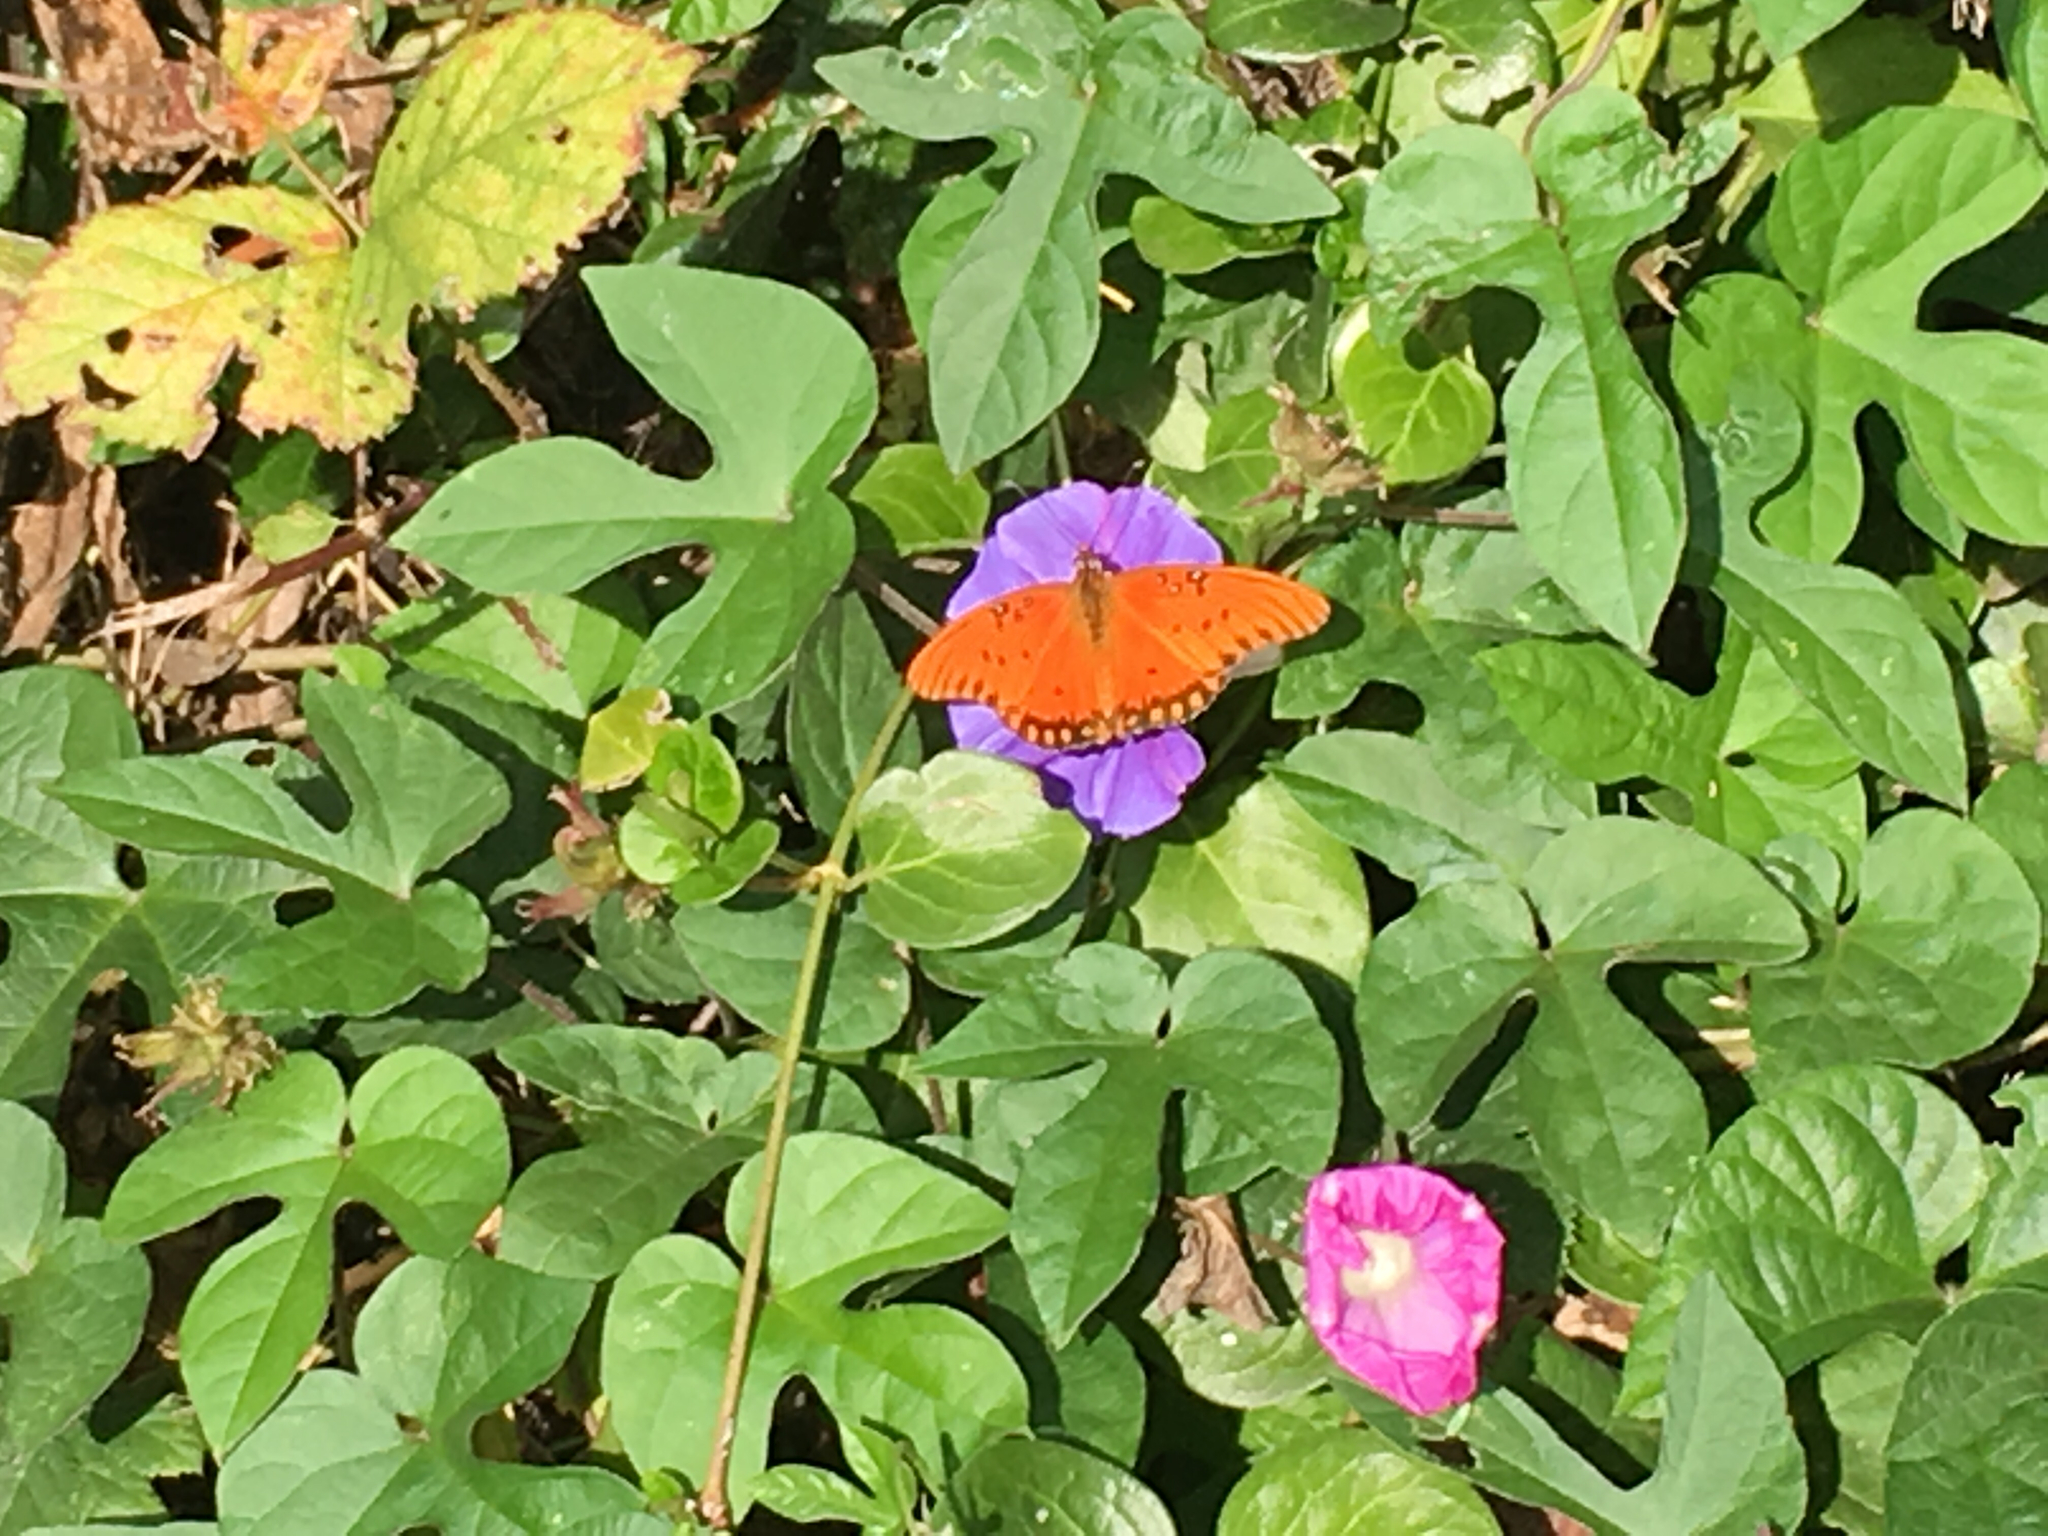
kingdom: Animalia
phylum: Arthropoda
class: Insecta
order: Lepidoptera
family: Nymphalidae
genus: Dione
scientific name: Dione vanillae
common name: Gulf fritillary
